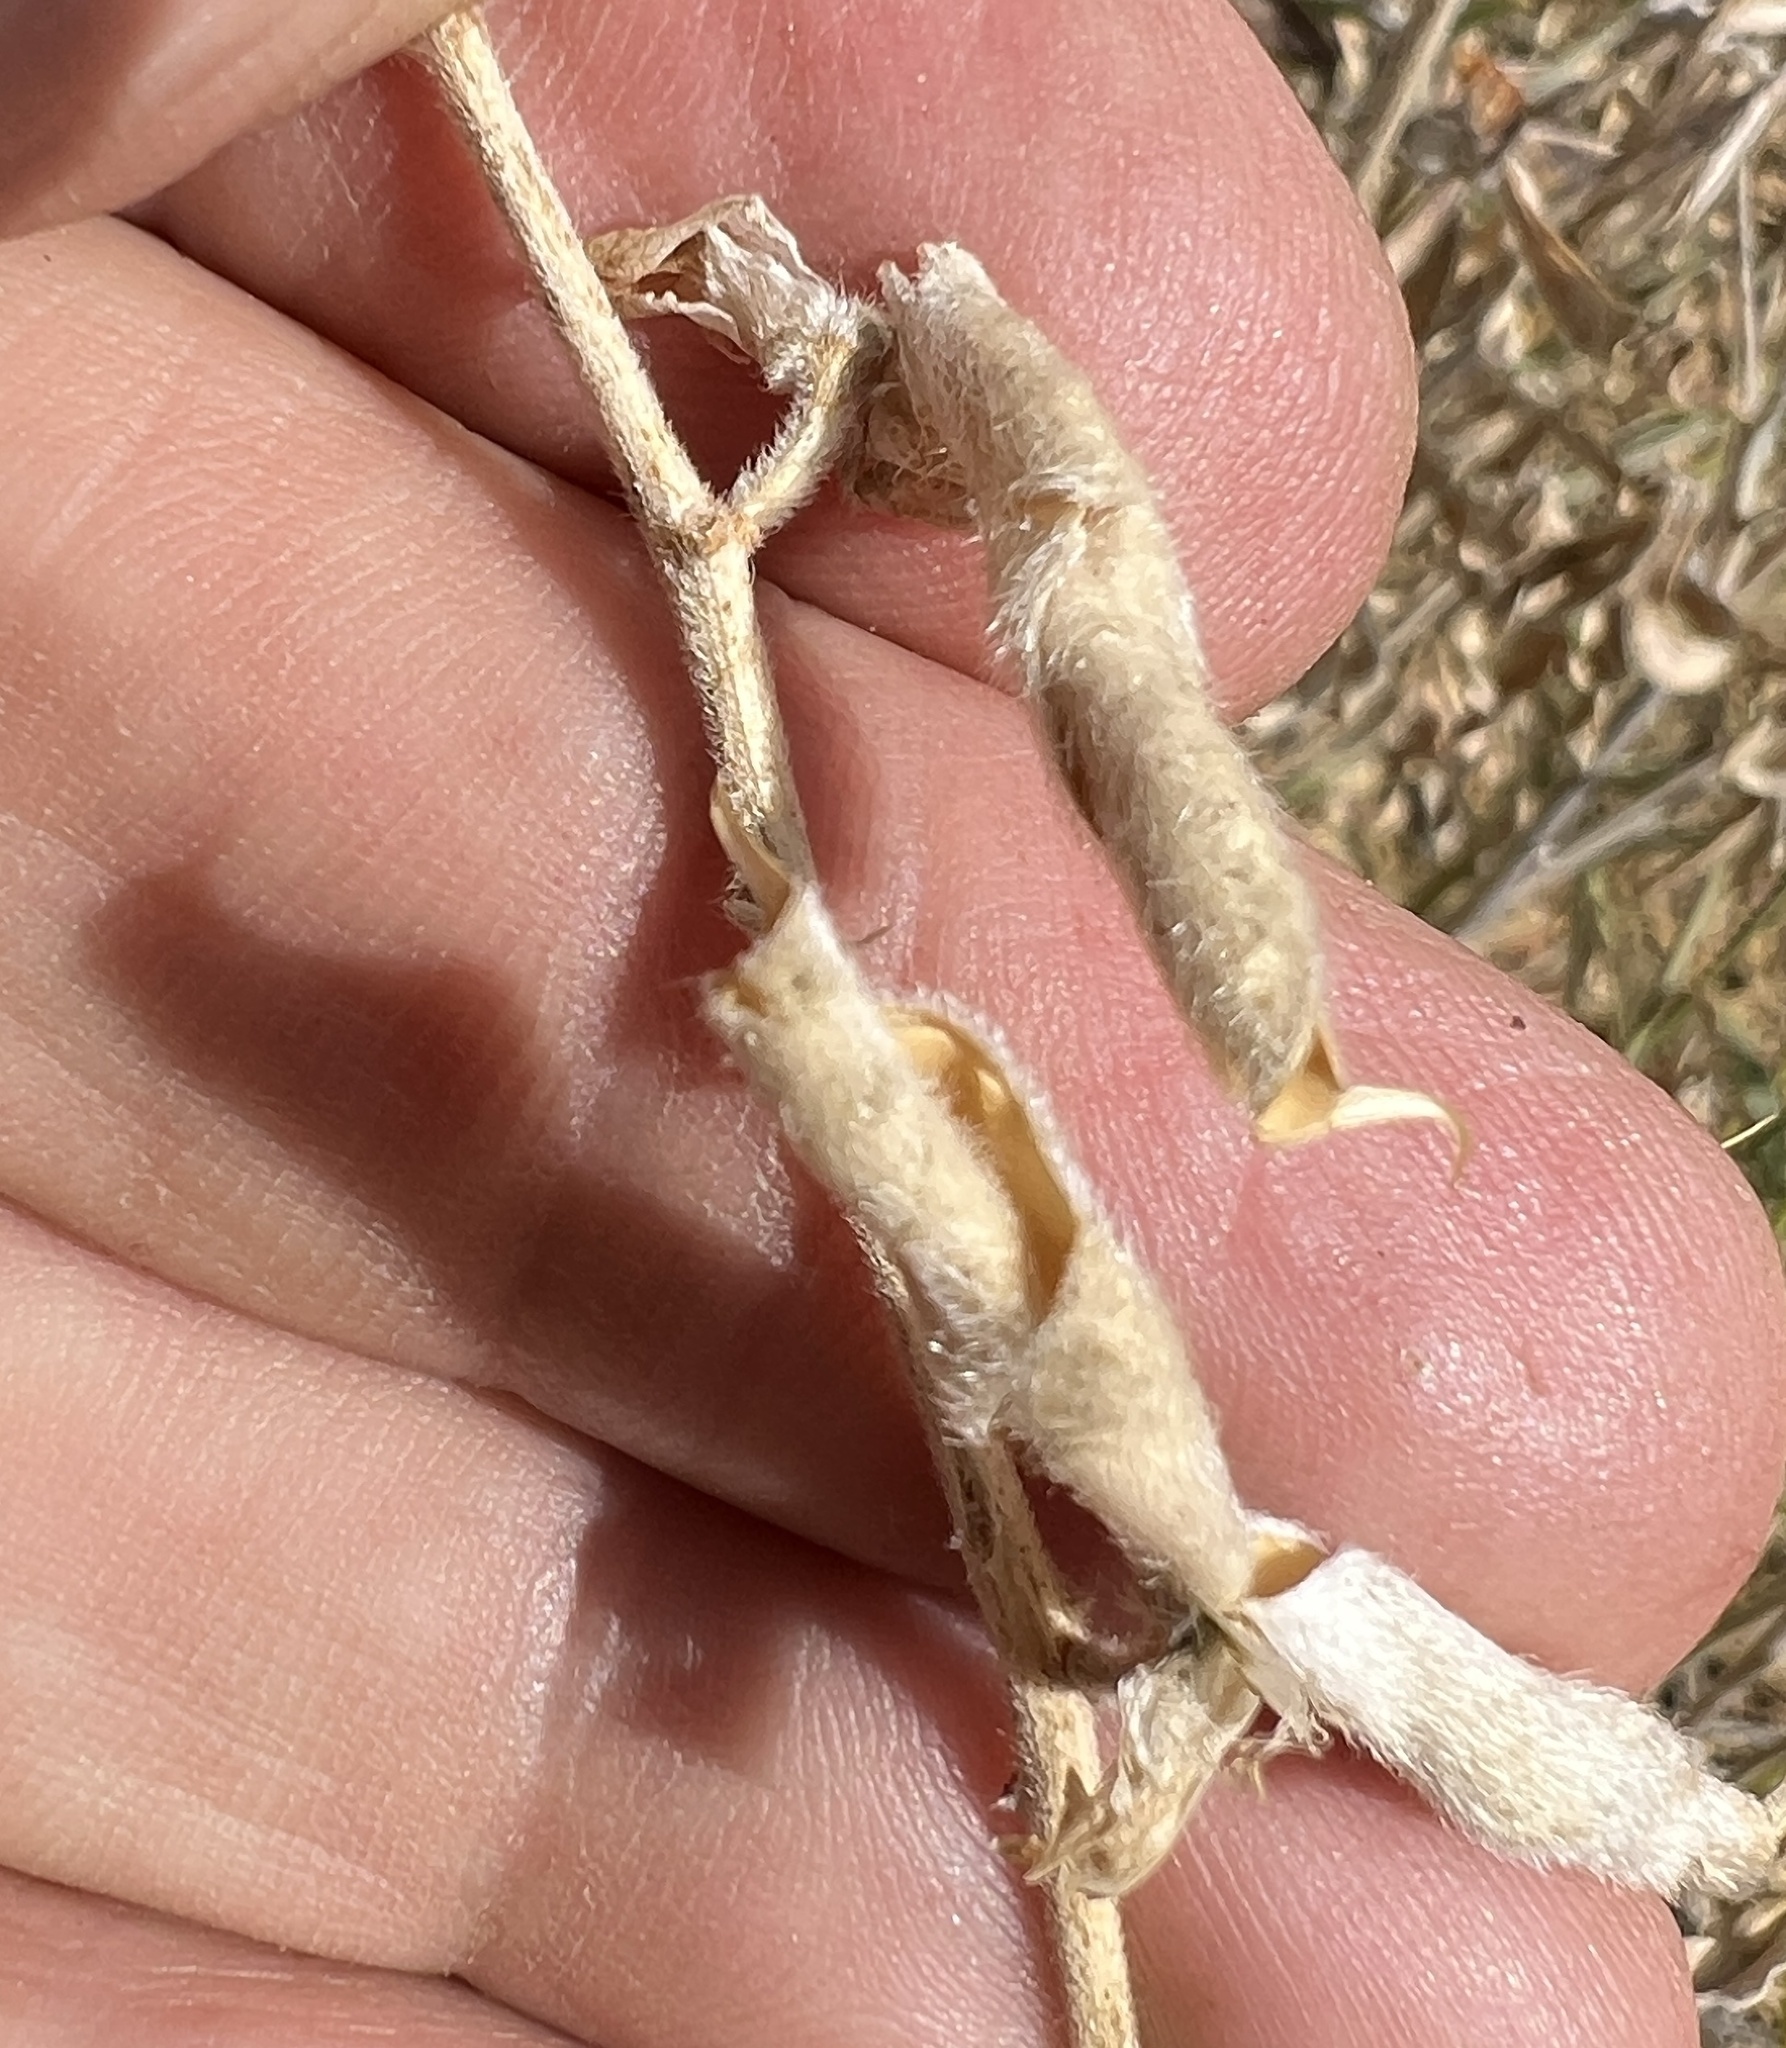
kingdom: Plantae
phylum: Tracheophyta
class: Magnoliopsida
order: Fabales
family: Fabaceae
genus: Lupinus
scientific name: Lupinus argenteus
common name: Silvery lupine
